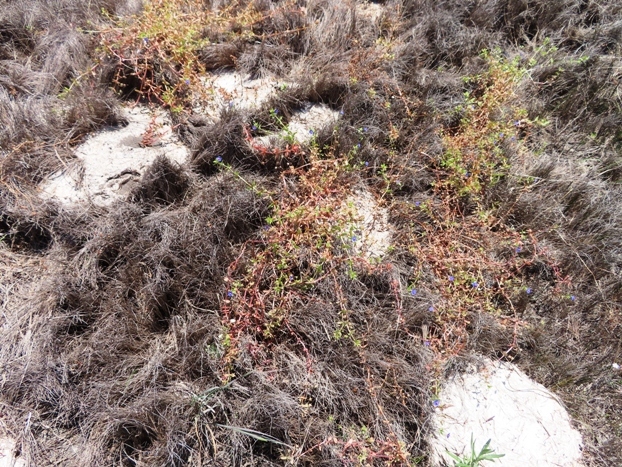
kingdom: Plantae
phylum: Tracheophyta
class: Magnoliopsida
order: Ericales
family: Primulaceae
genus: Lysimachia
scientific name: Lysimachia loeflingii
